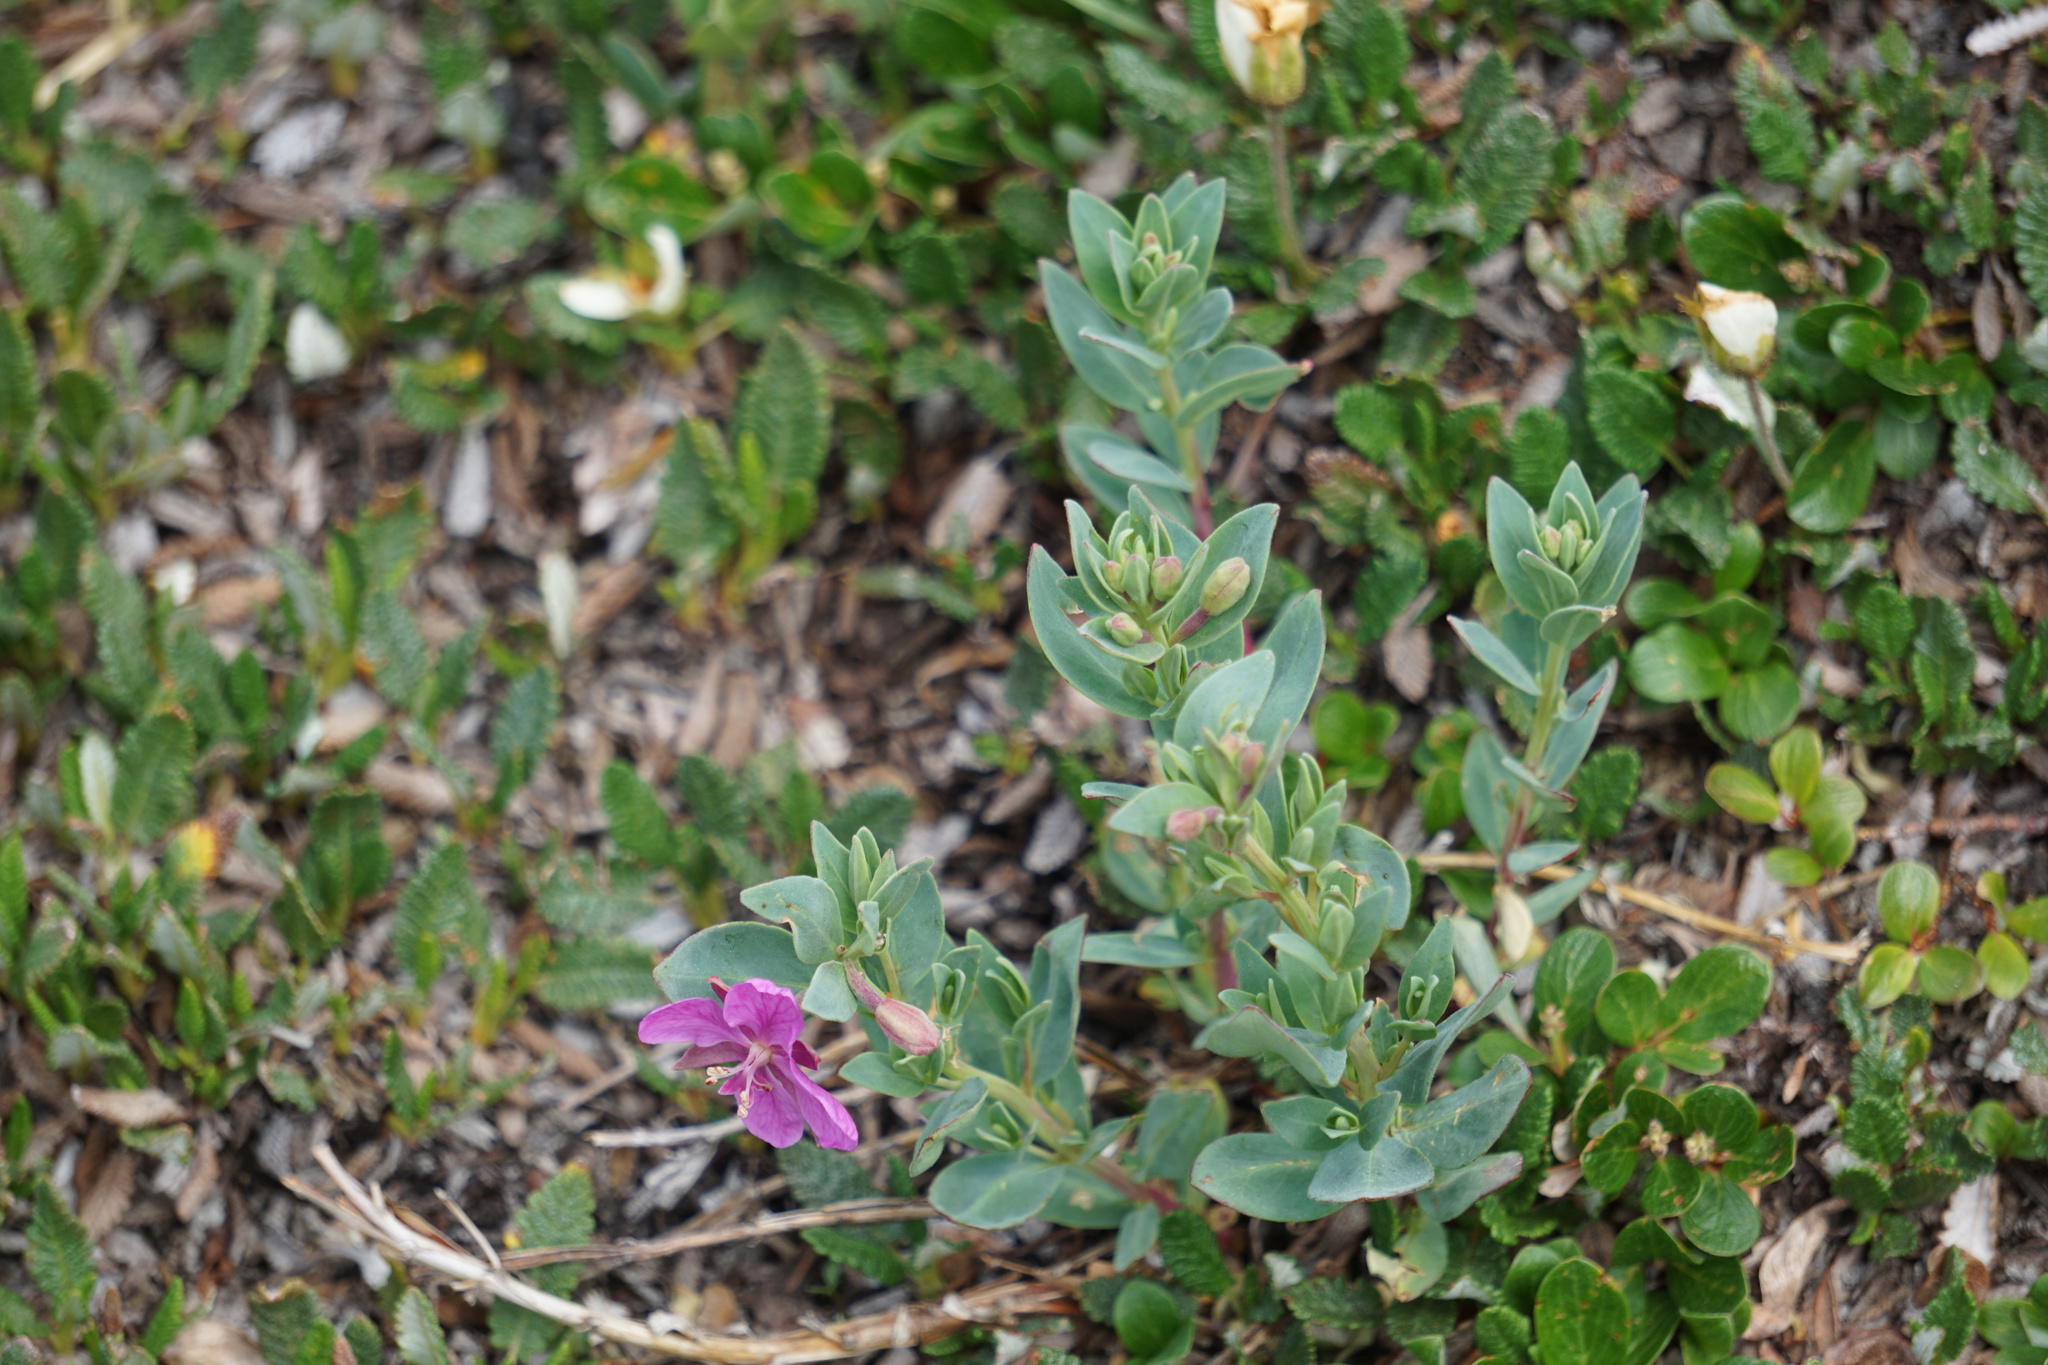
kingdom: Plantae
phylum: Tracheophyta
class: Magnoliopsida
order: Myrtales
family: Onagraceae
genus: Chamaenerion
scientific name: Chamaenerion latifolium
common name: Dwarf fireweed
